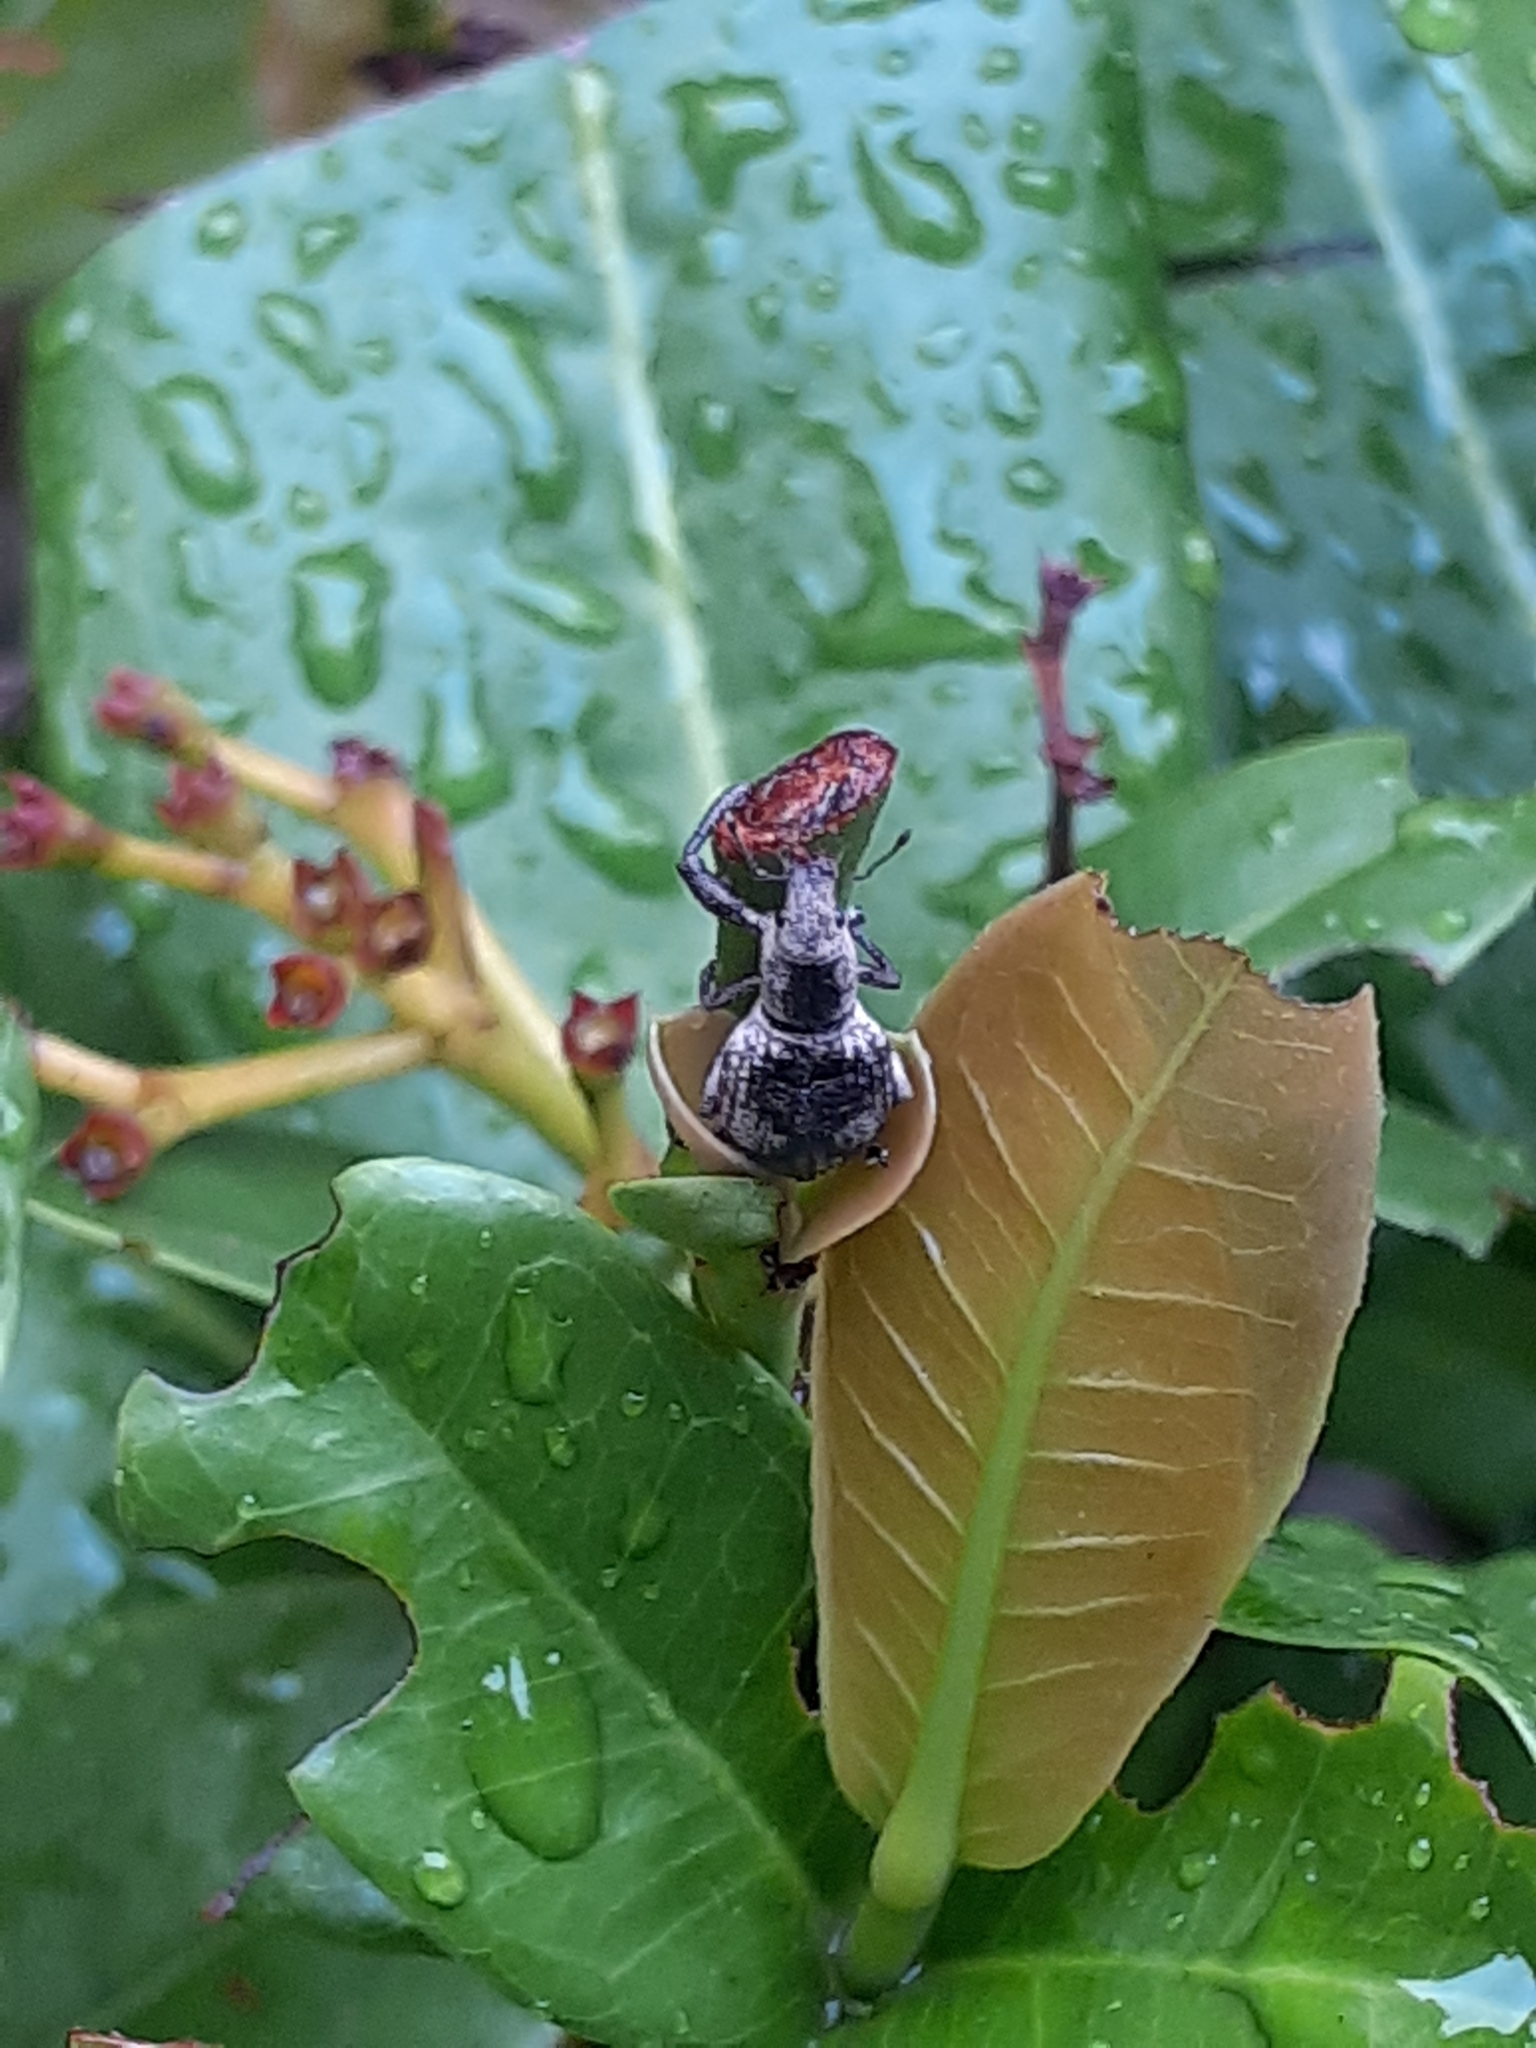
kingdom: Animalia
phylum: Arthropoda
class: Insecta
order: Coleoptera
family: Curculionidae
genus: Sympiezomias
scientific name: Sympiezomias cribricollis
